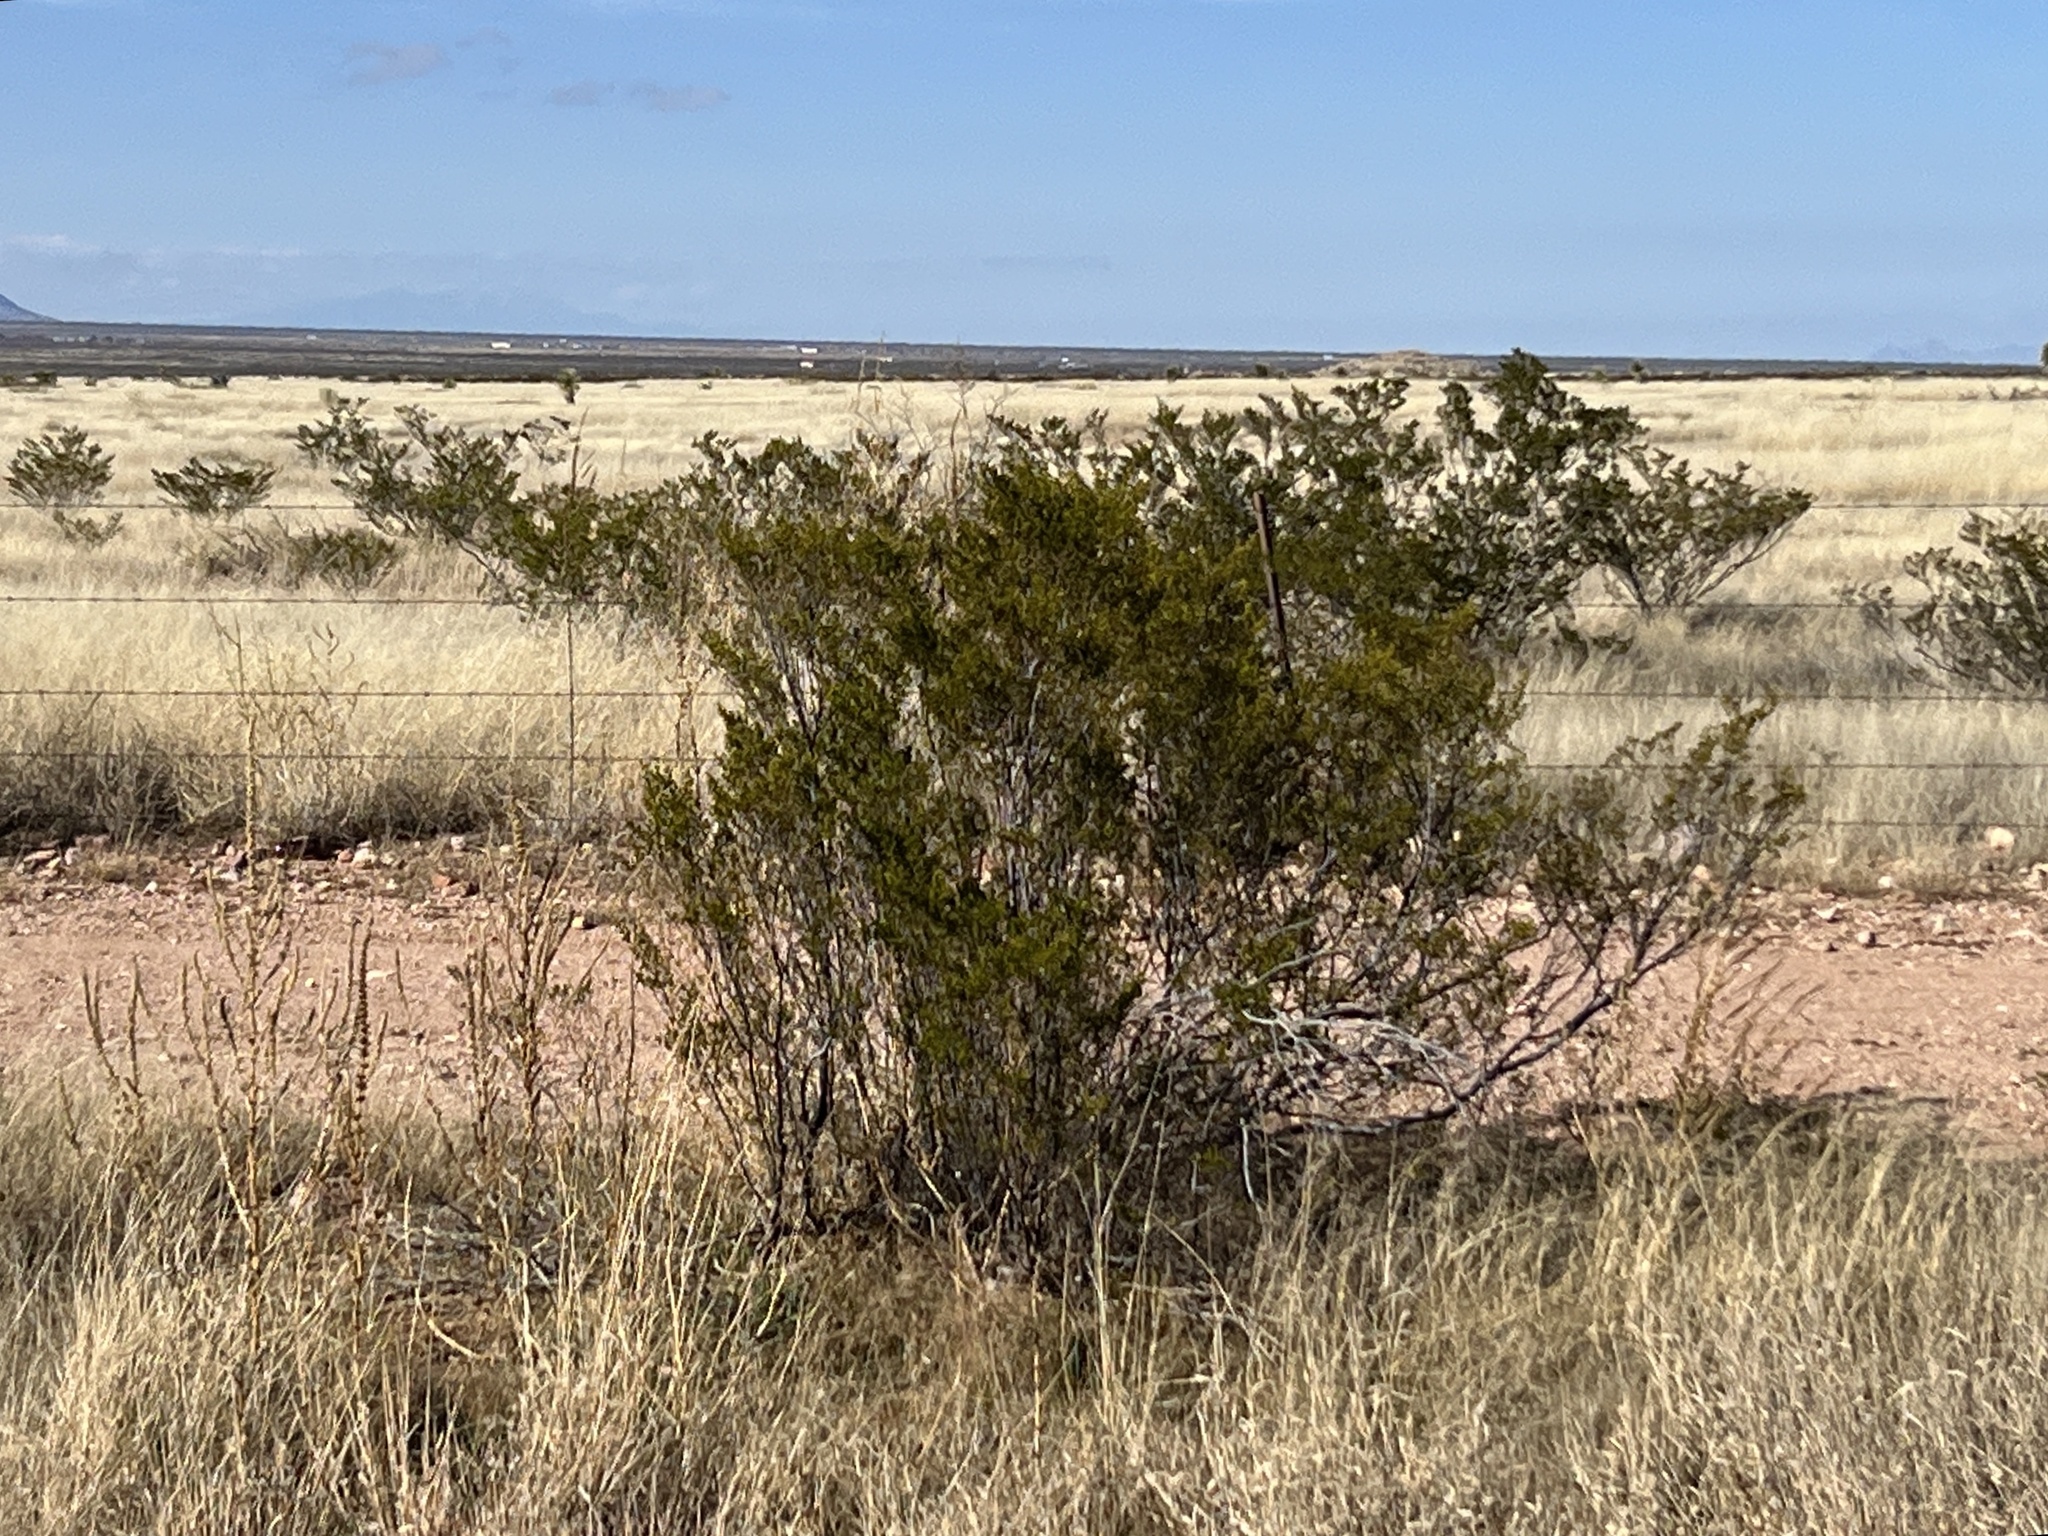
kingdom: Plantae
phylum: Tracheophyta
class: Magnoliopsida
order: Zygophyllales
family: Zygophyllaceae
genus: Larrea
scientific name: Larrea tridentata
